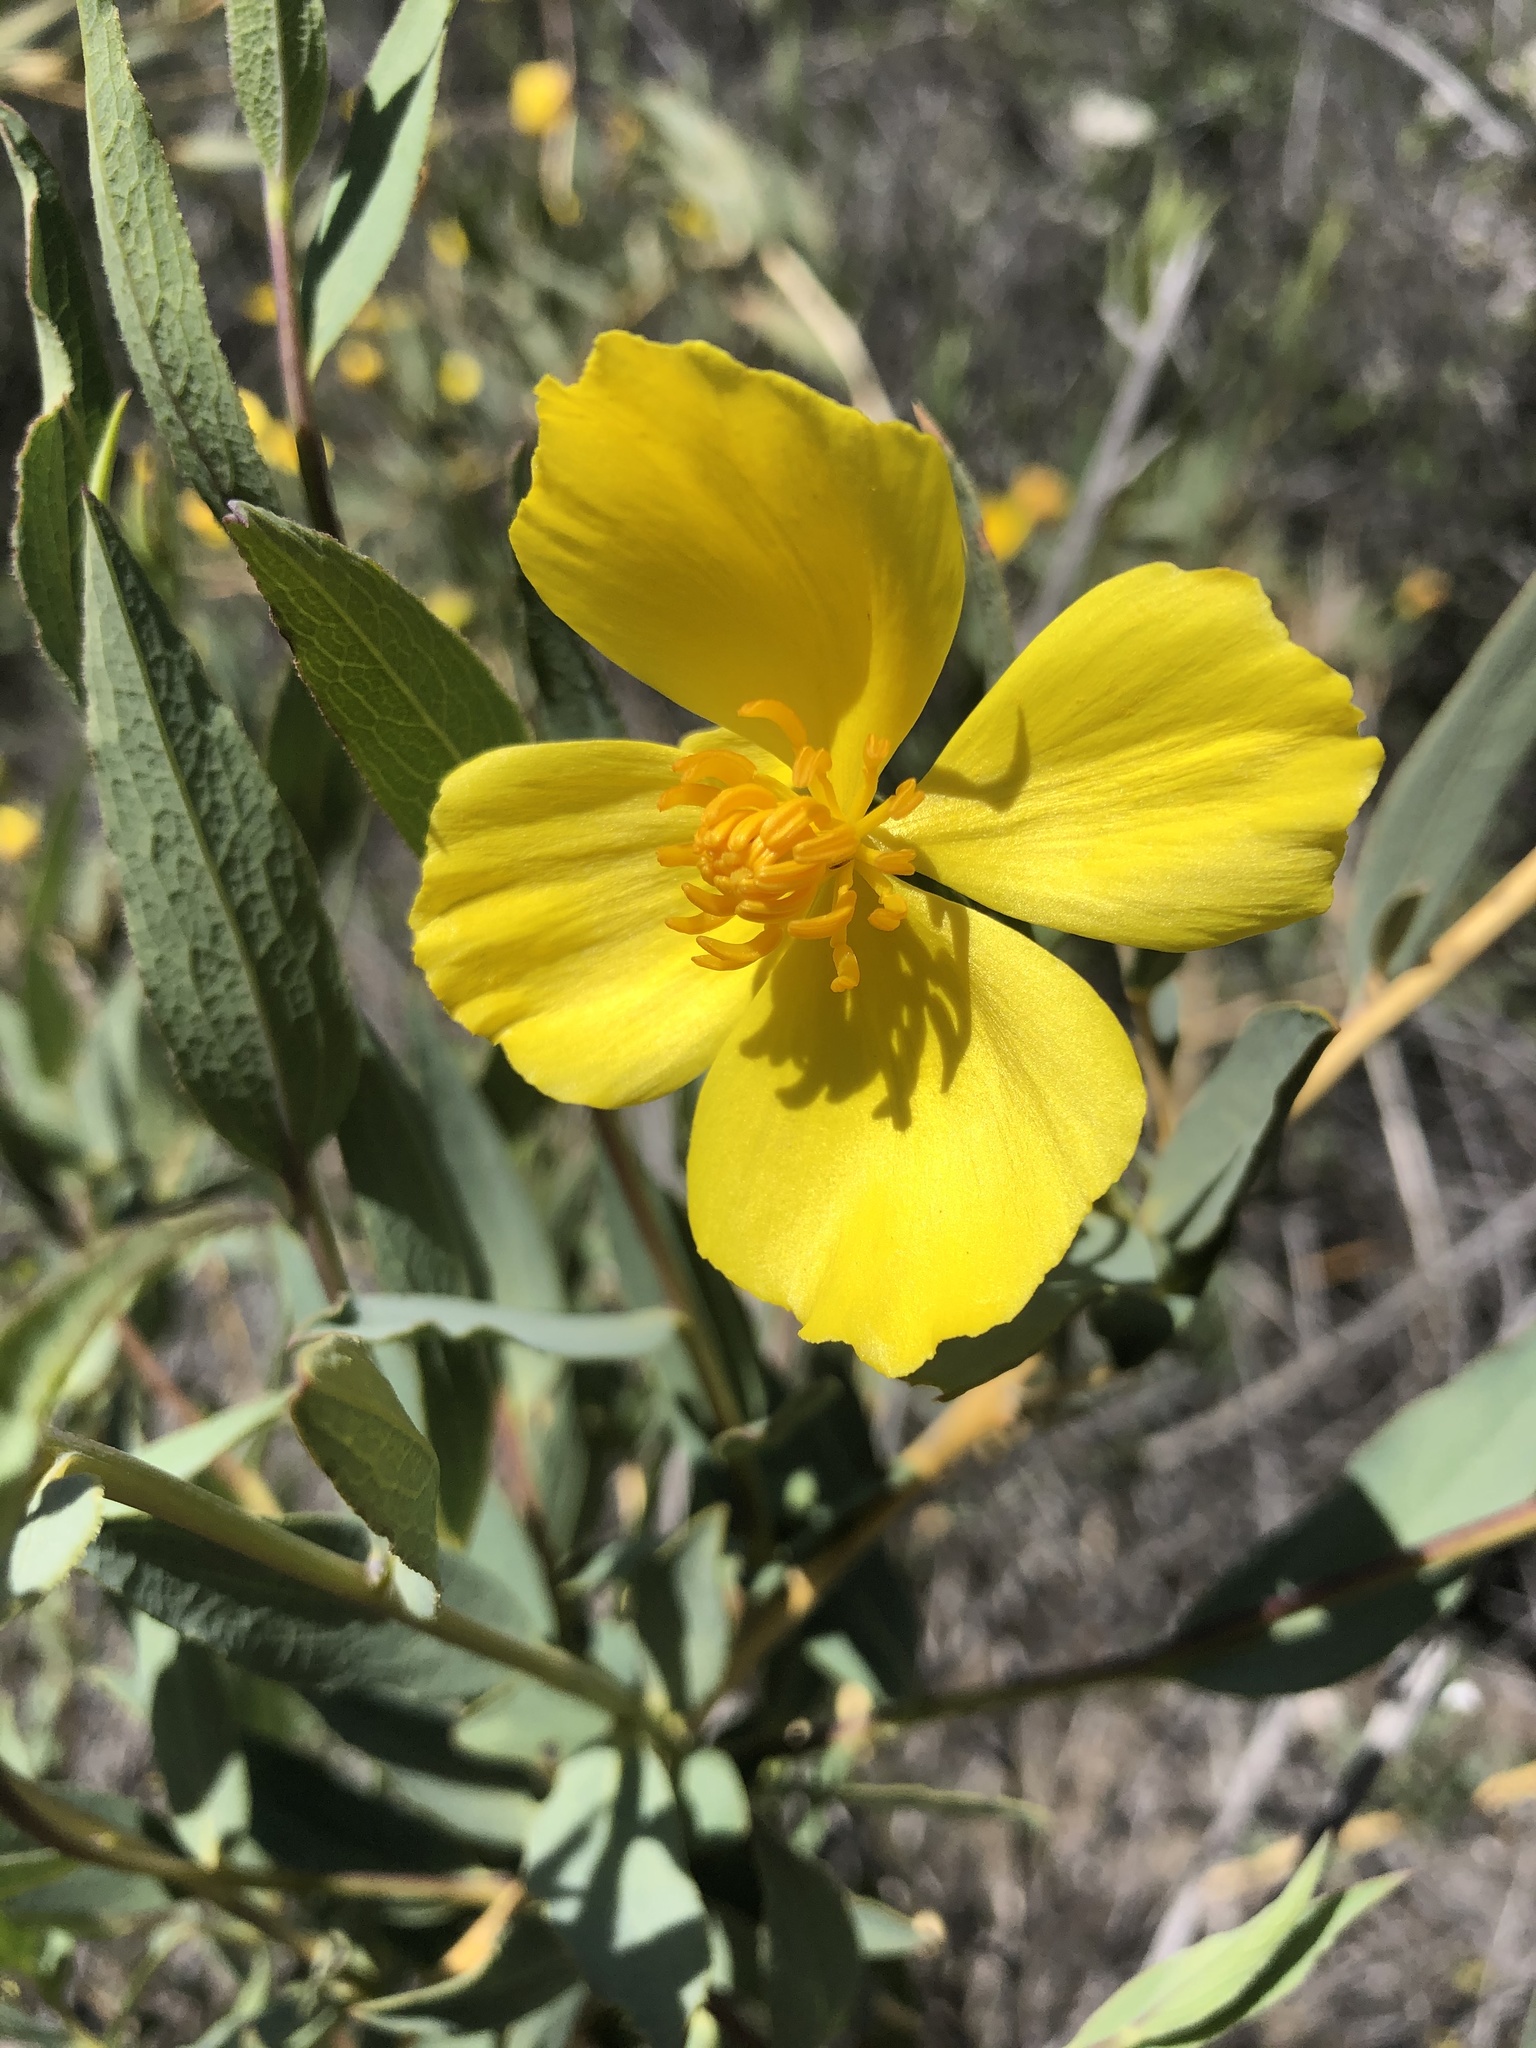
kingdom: Plantae
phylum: Tracheophyta
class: Magnoliopsida
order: Ranunculales
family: Papaveraceae
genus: Dendromecon
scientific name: Dendromecon rigida
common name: Tree poppy
